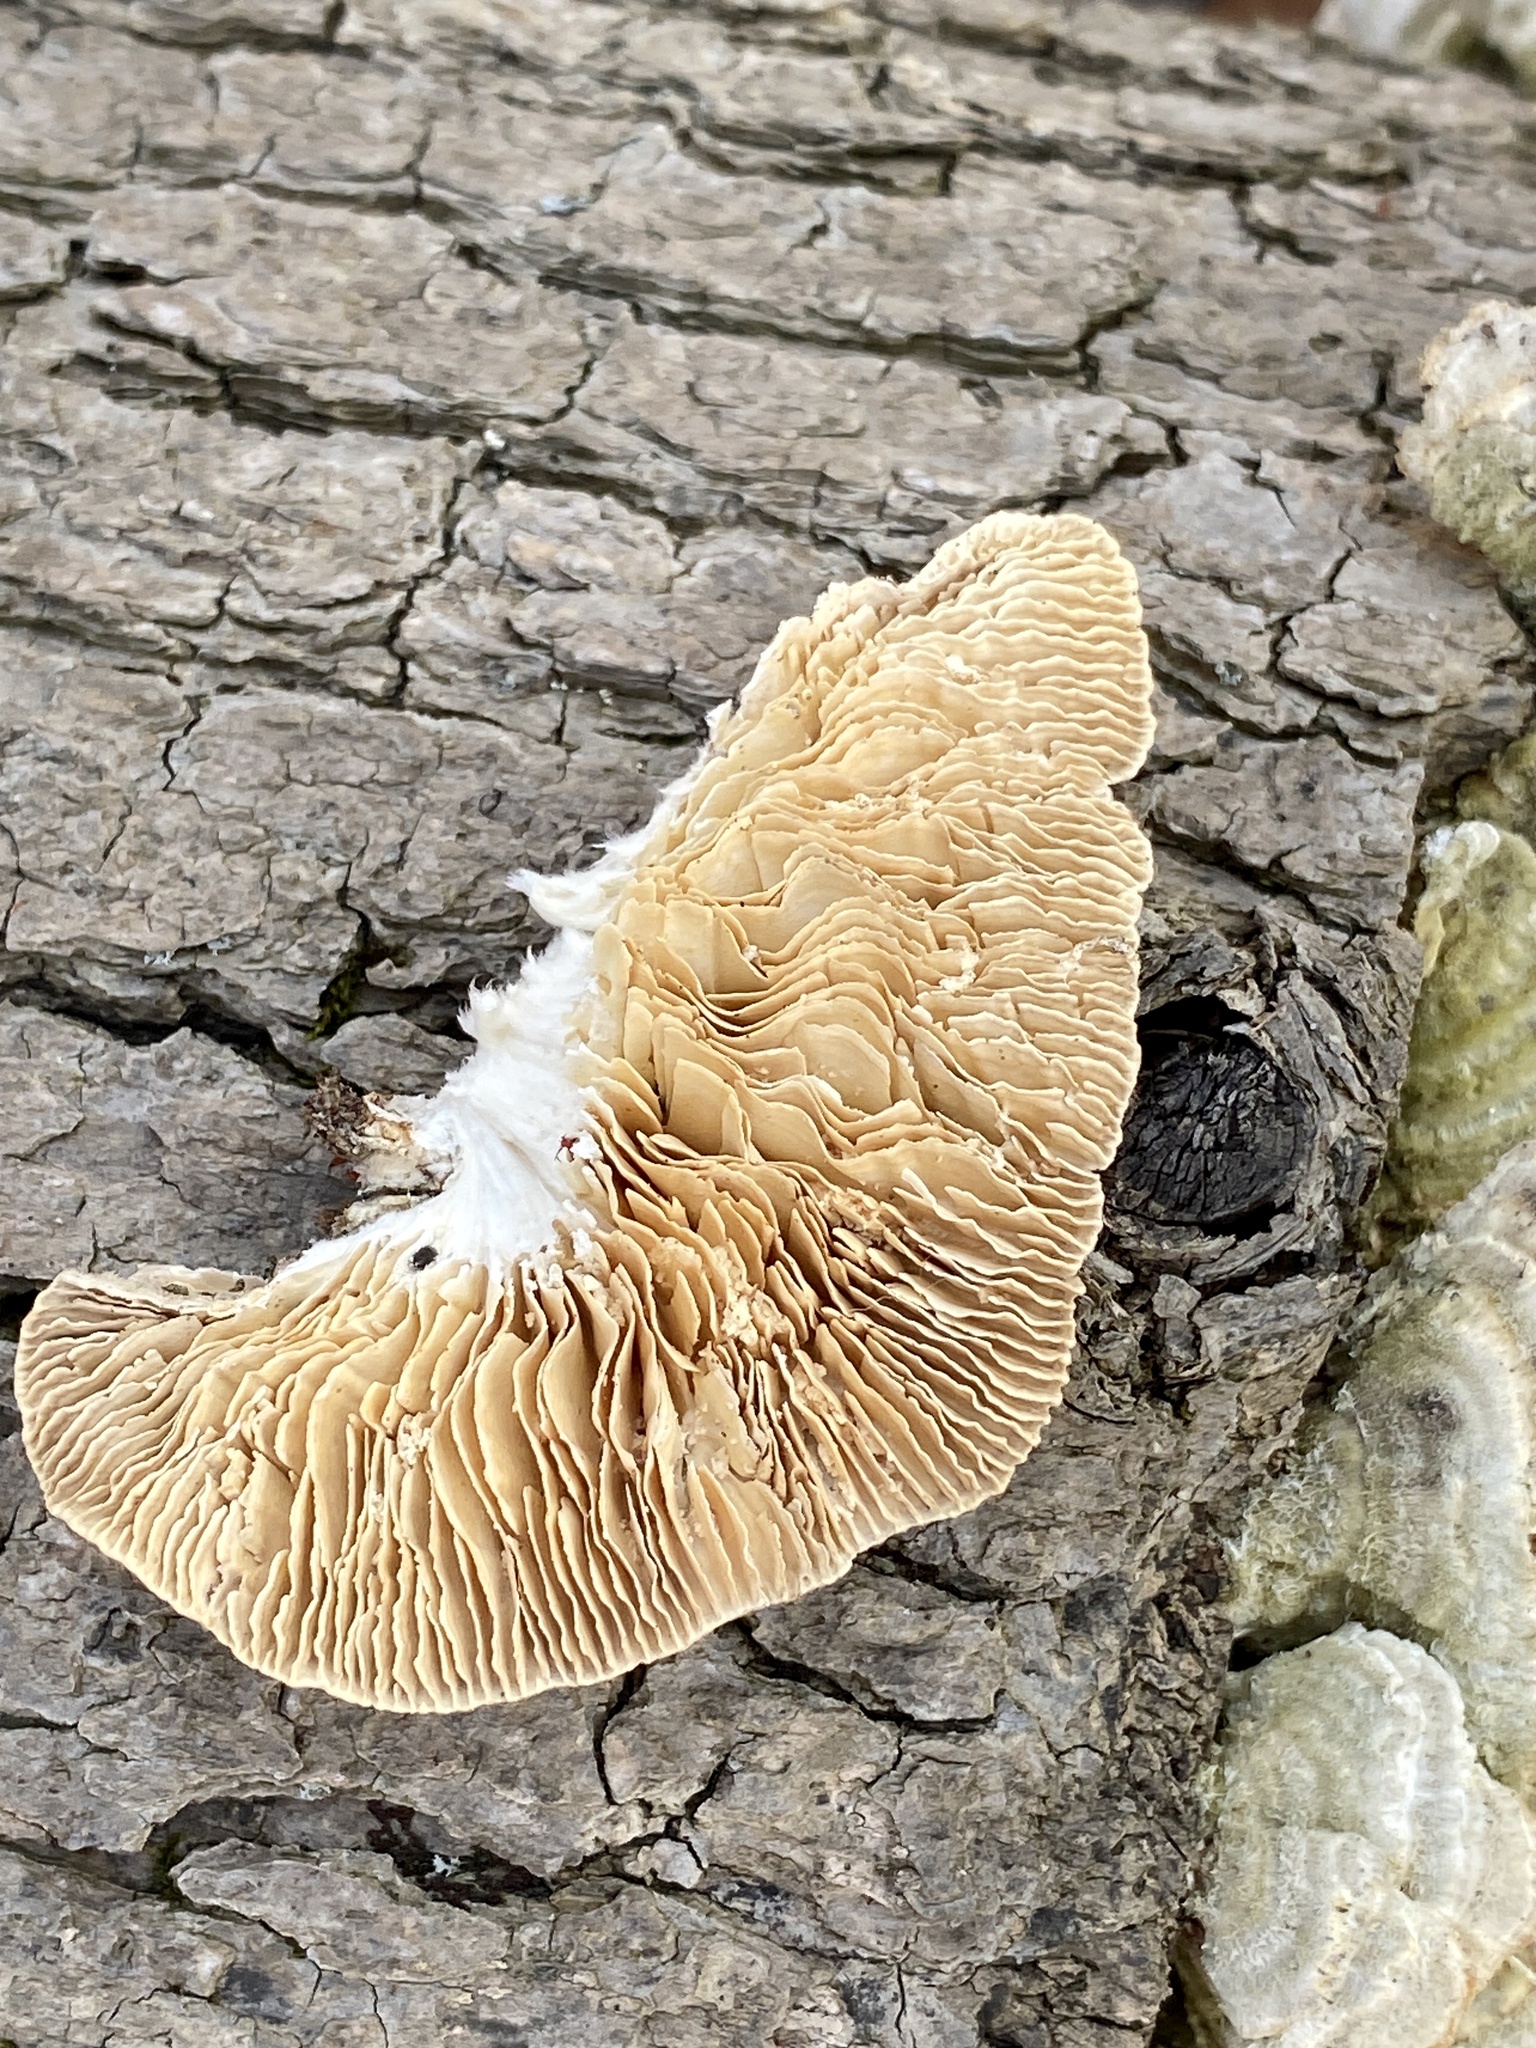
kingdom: Fungi
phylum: Basidiomycota
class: Agaricomycetes
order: Polyporales
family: Polyporaceae
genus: Lenzites
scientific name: Lenzites betulinus
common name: Birch mazegill
